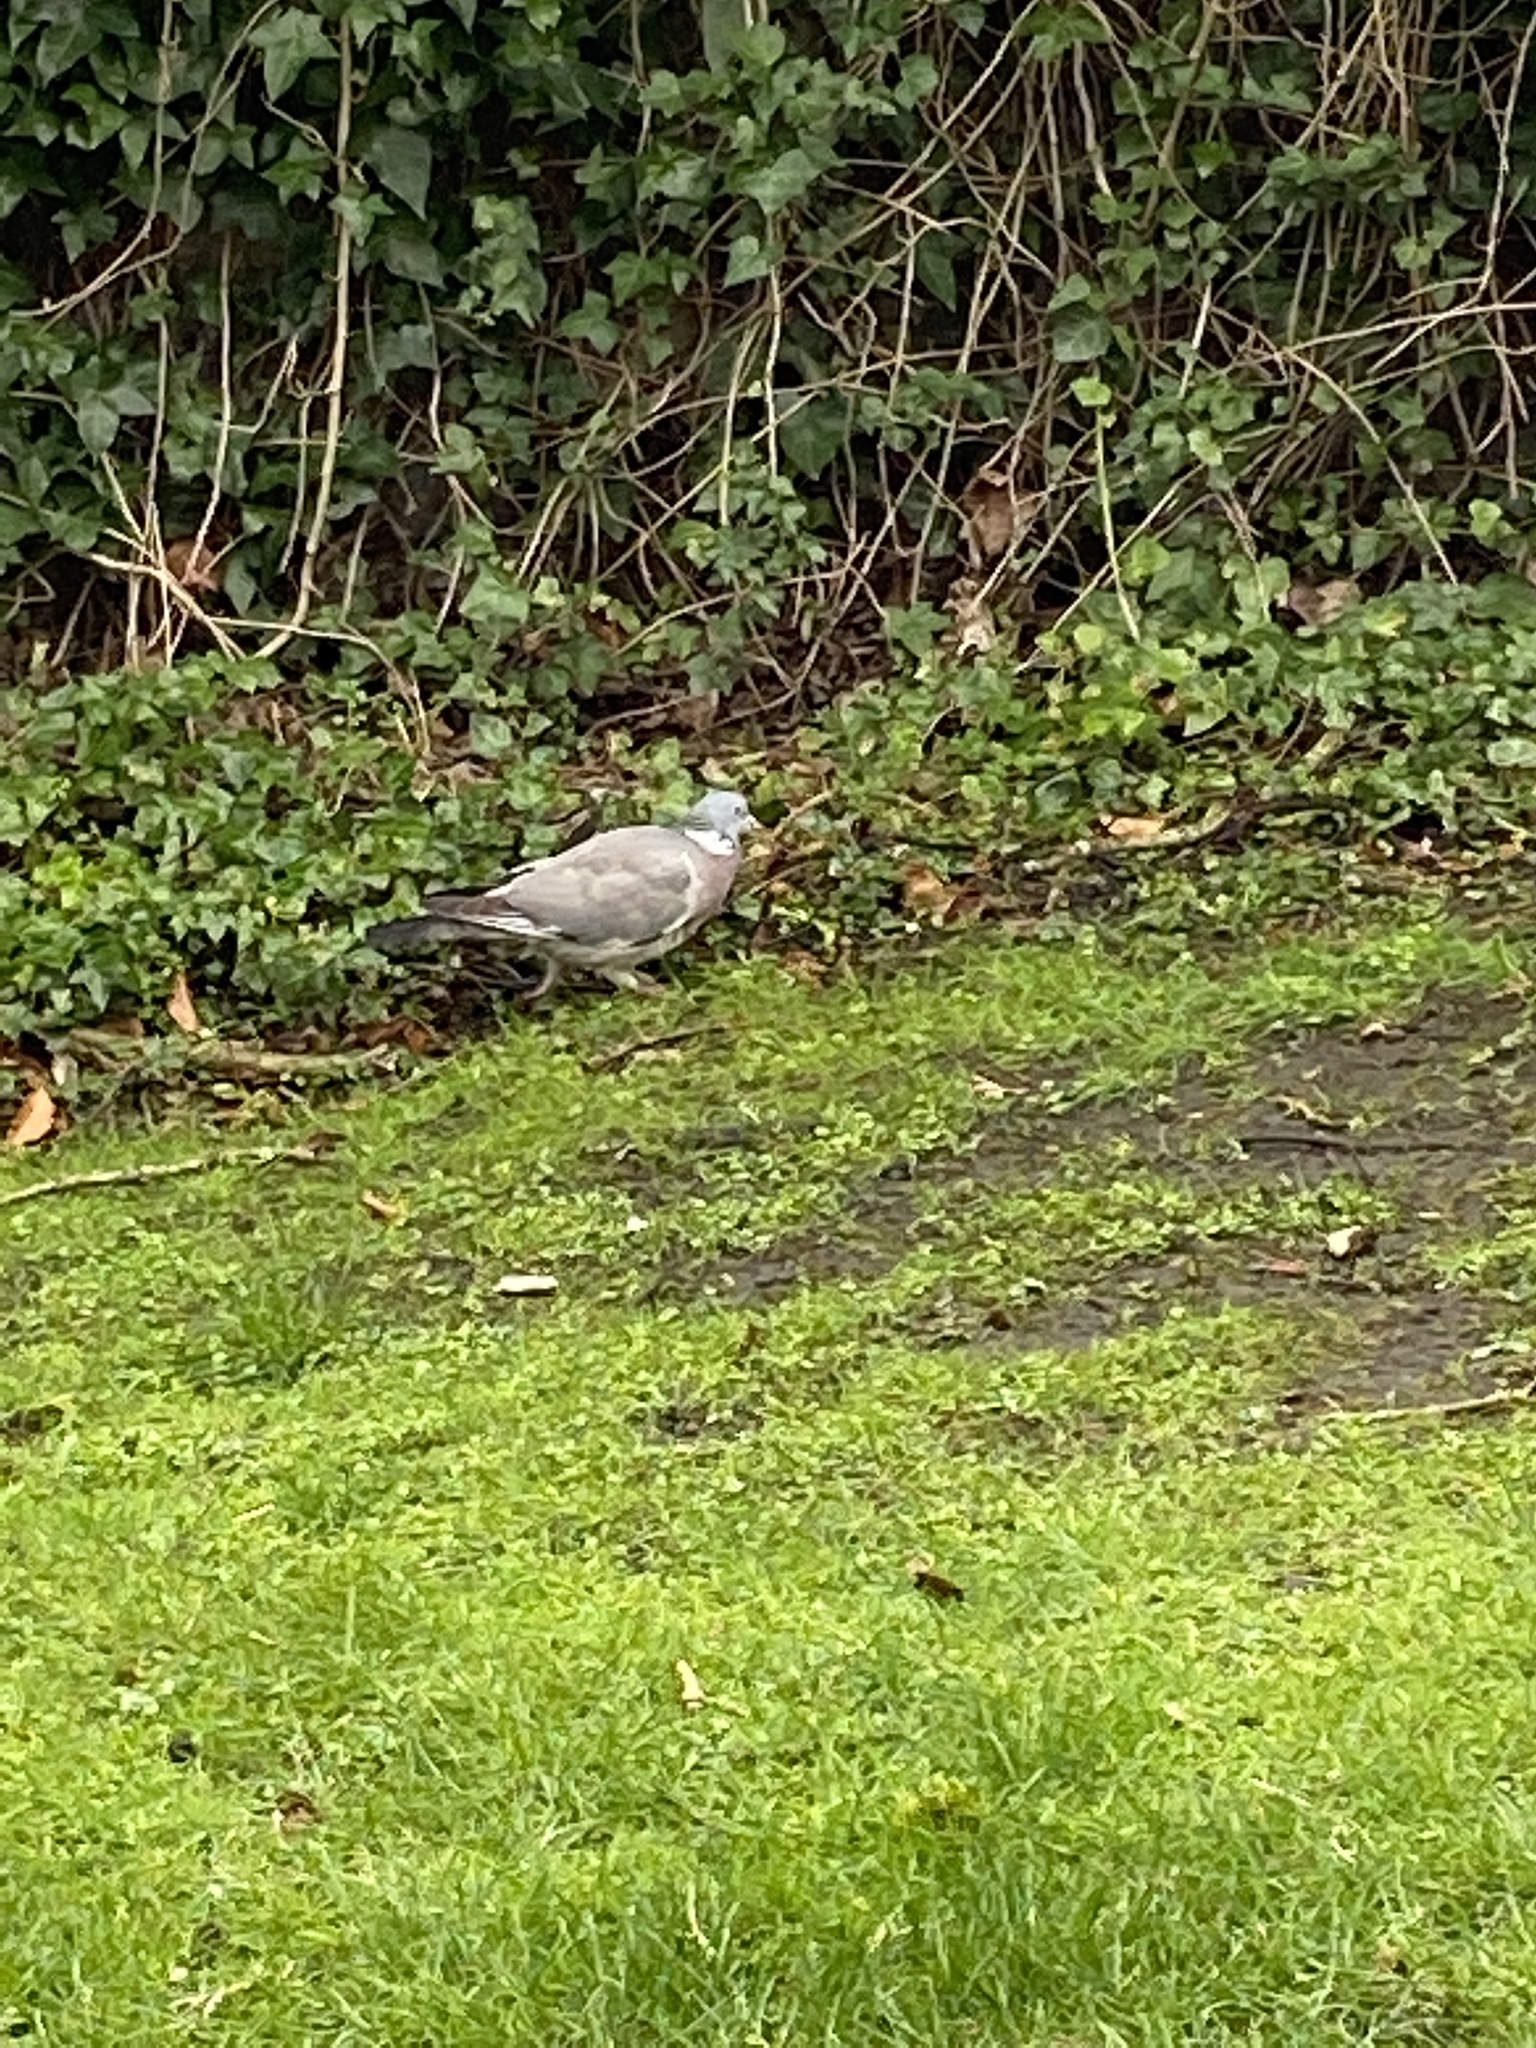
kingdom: Animalia
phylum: Chordata
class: Aves
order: Columbiformes
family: Columbidae
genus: Columba
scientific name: Columba palumbus
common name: Common wood pigeon
